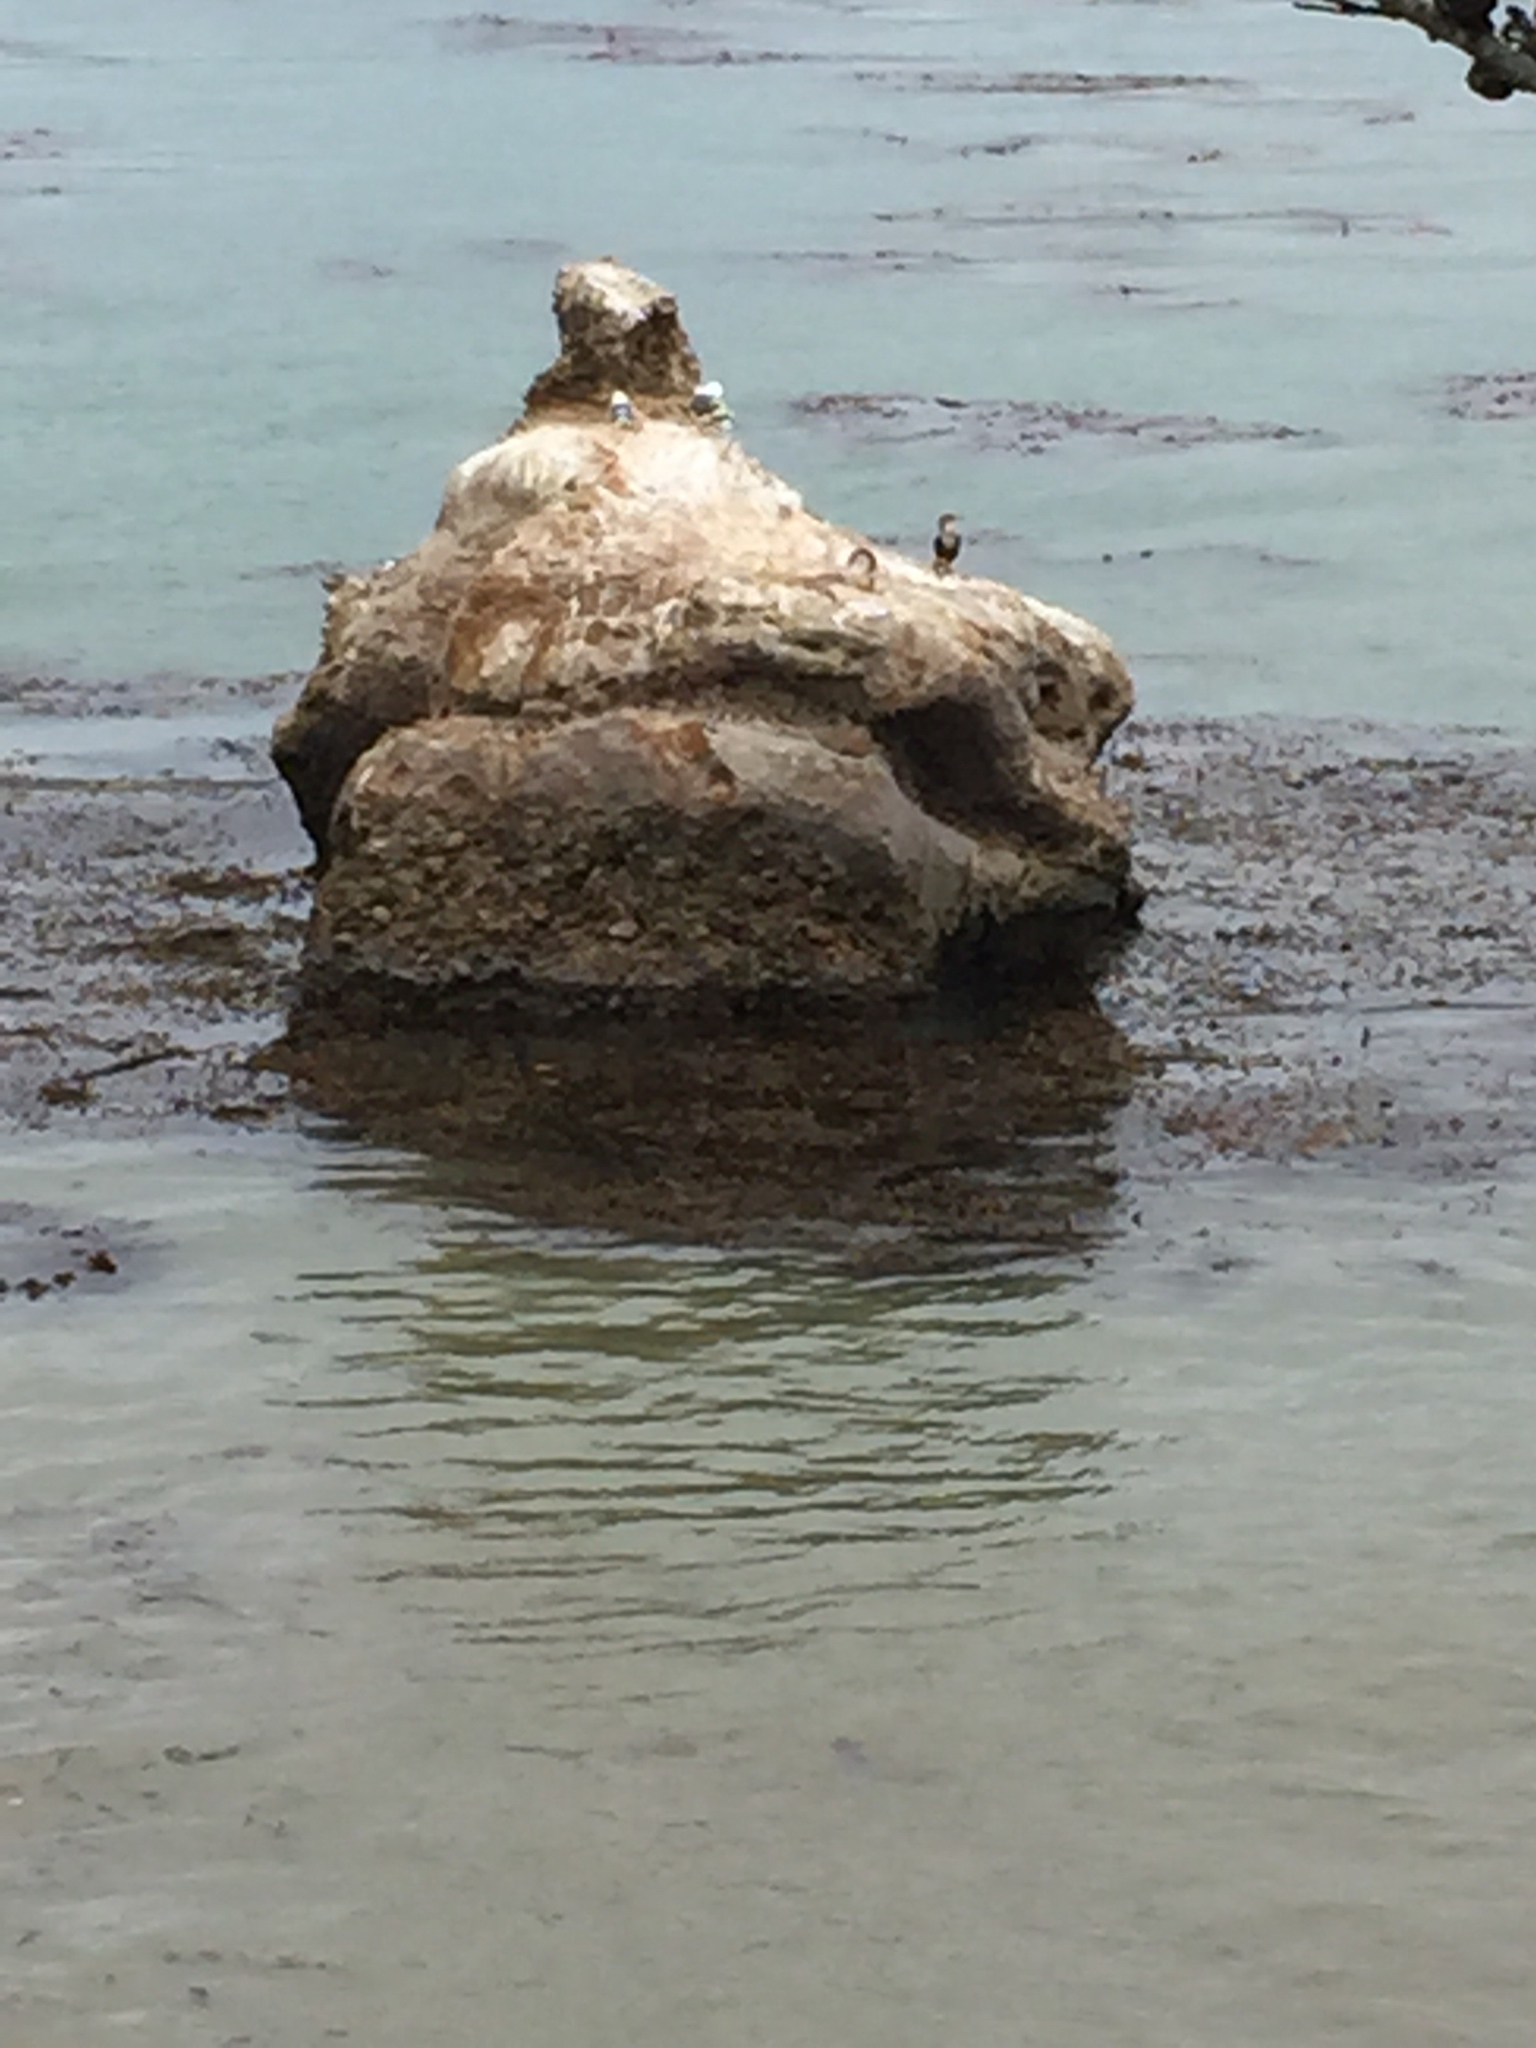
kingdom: Animalia
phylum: Chordata
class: Aves
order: Suliformes
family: Phalacrocoracidae
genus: Phalacrocorax
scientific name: Phalacrocorax auritus
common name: Double-crested cormorant
